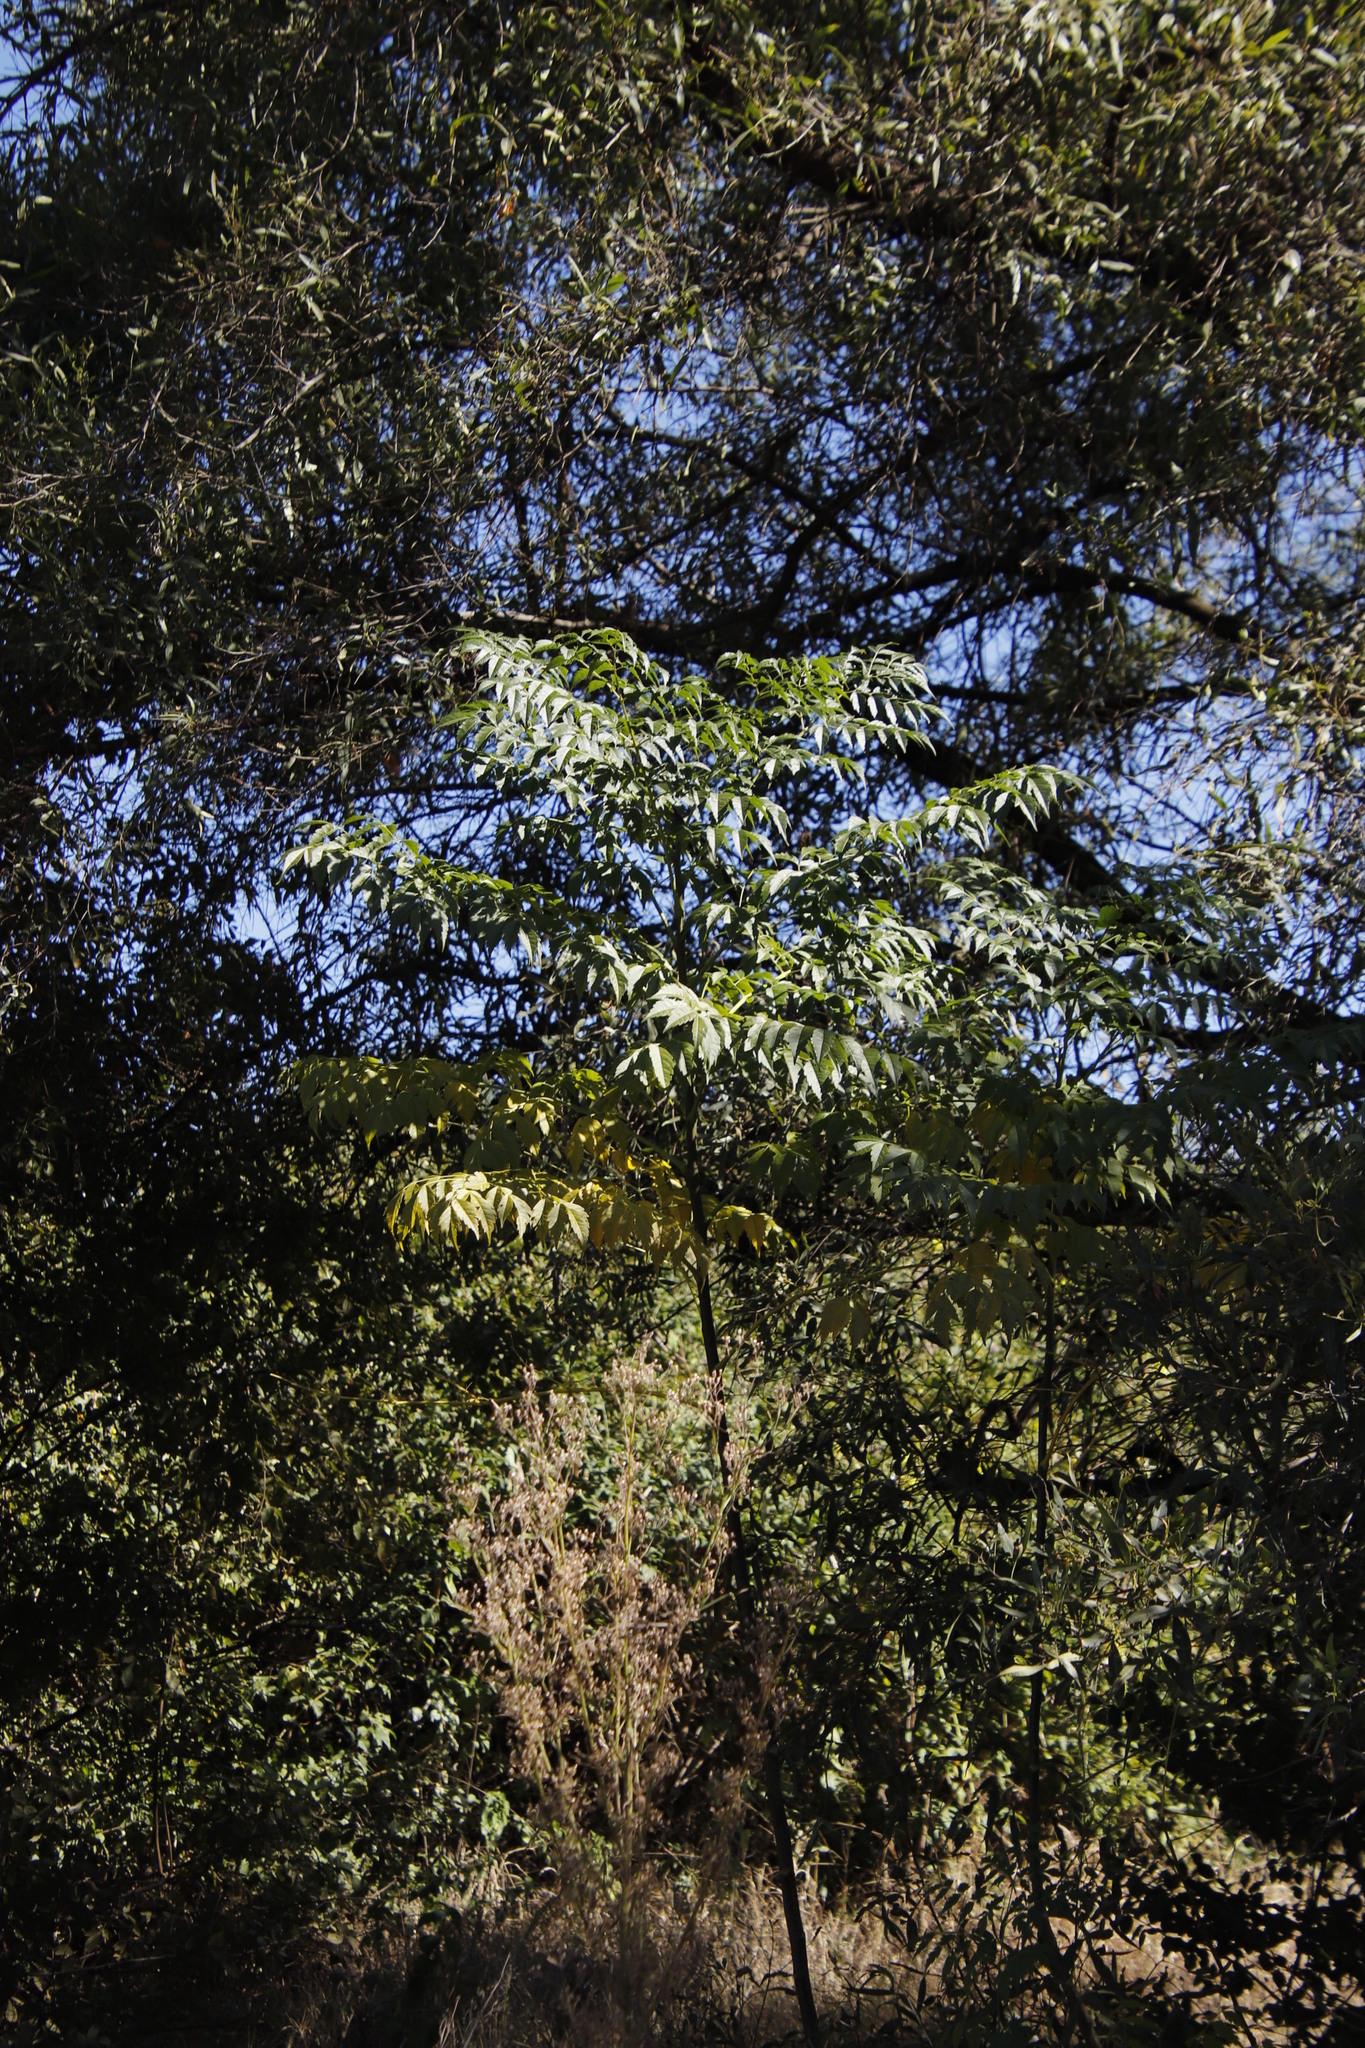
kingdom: Plantae
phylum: Tracheophyta
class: Magnoliopsida
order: Sapindales
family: Meliaceae
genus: Melia
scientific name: Melia azedarach
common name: Chinaberrytree
